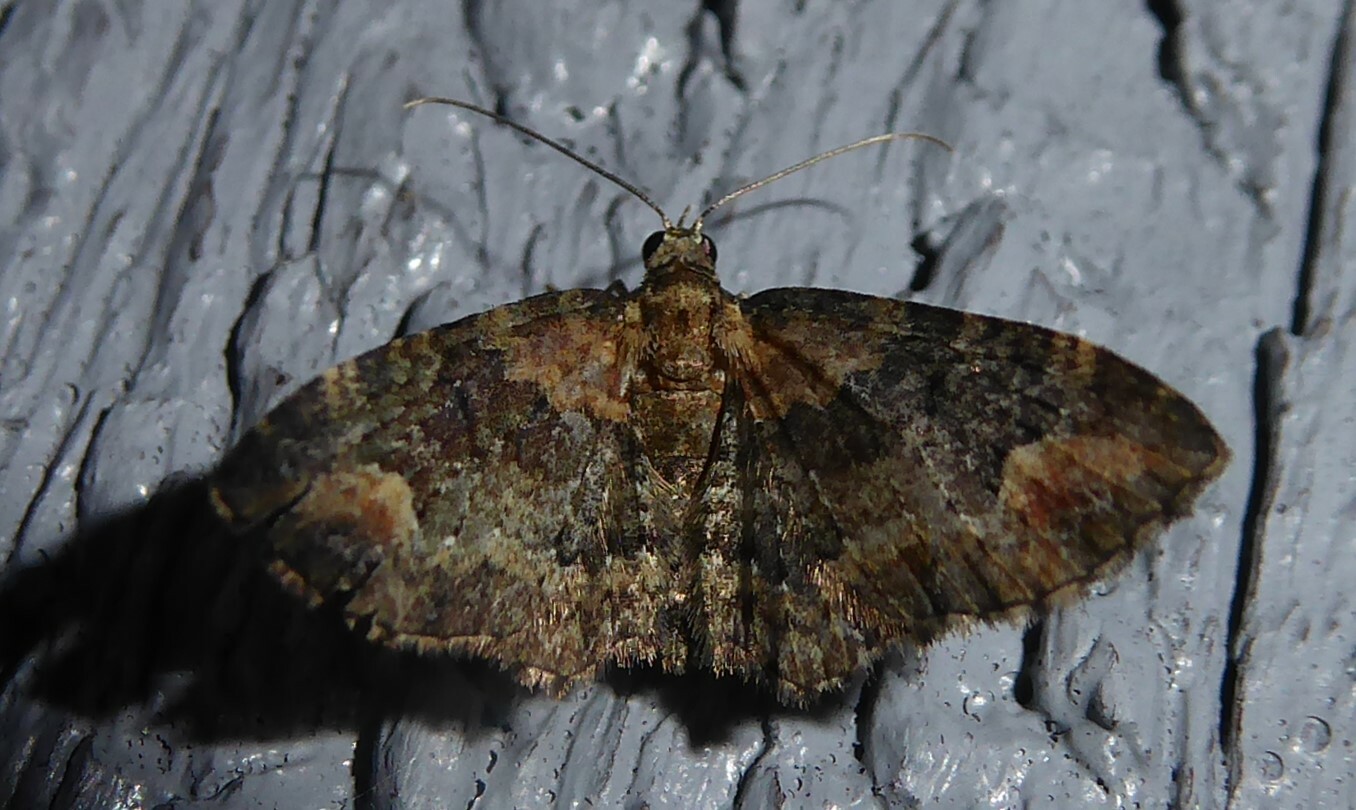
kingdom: Animalia
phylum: Arthropoda
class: Insecta
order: Lepidoptera
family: Geometridae
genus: Pasiphilodes
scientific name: Pasiphilodes testulata
